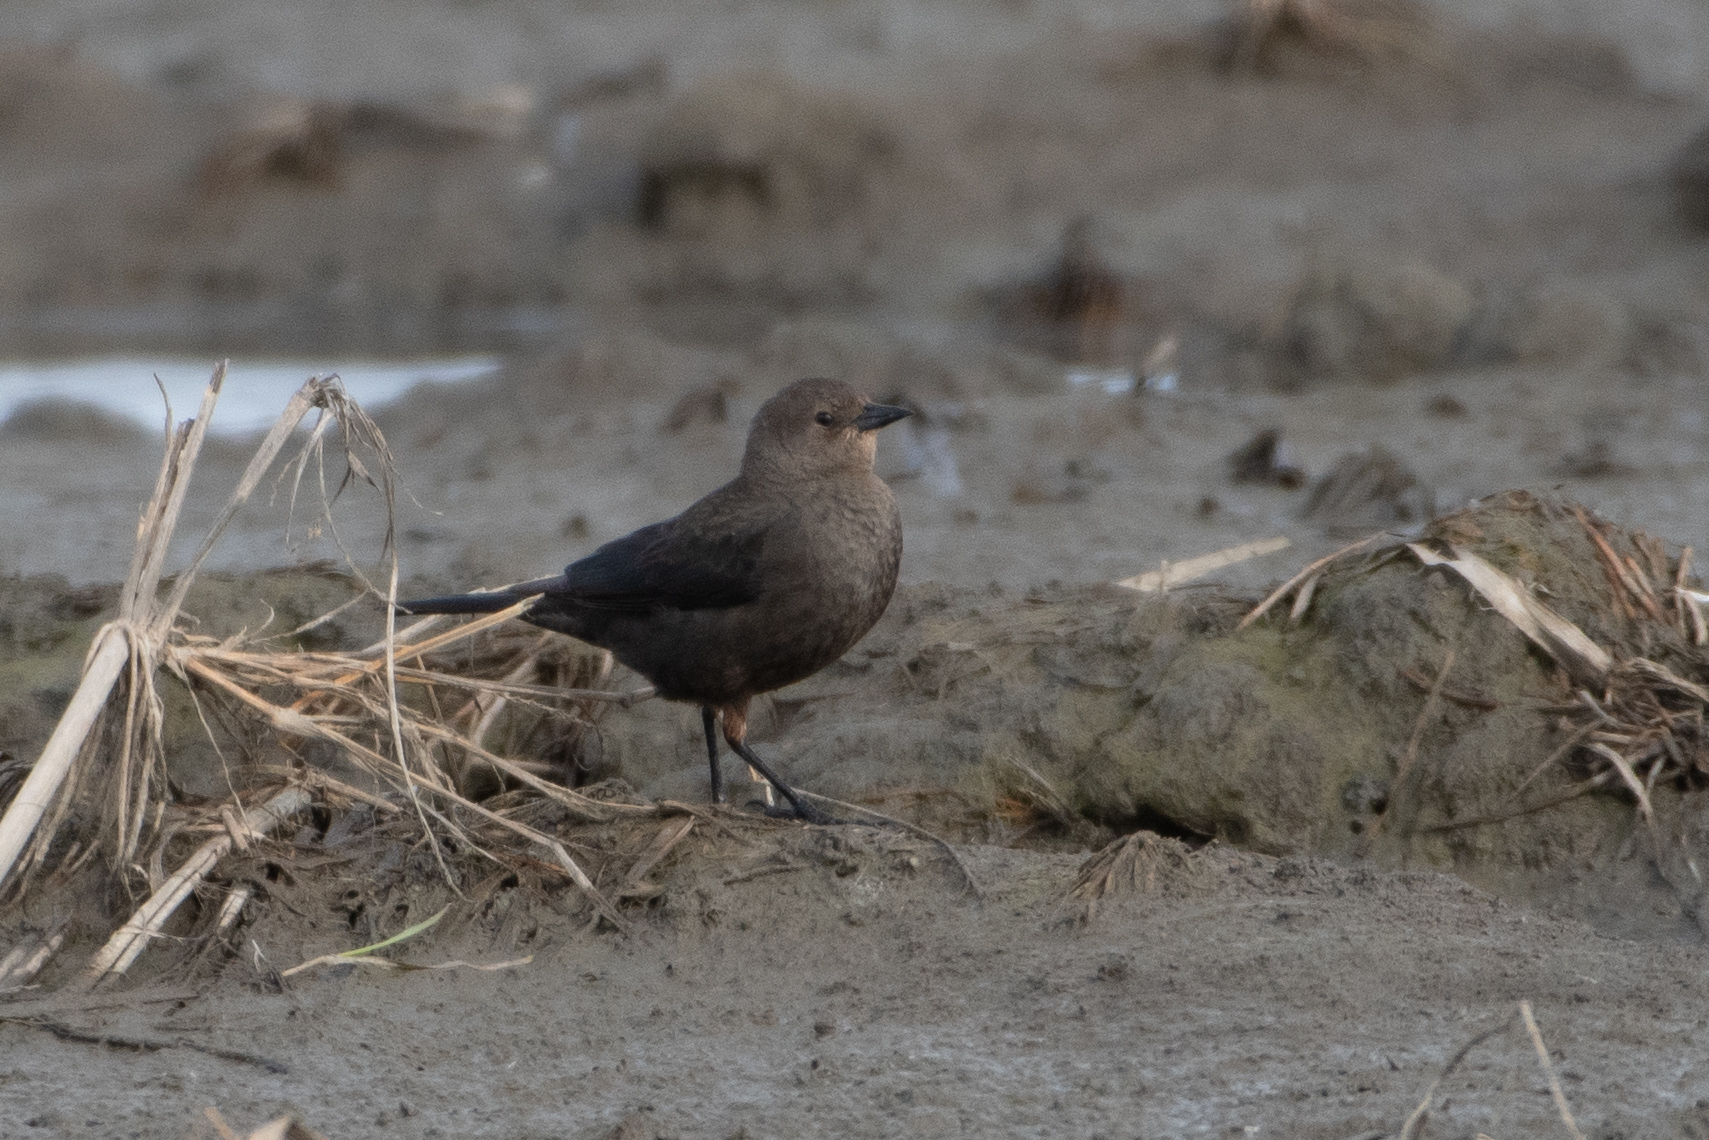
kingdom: Animalia
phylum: Chordata
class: Aves
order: Passeriformes
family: Icteridae
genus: Euphagus
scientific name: Euphagus cyanocephalus
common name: Brewer's blackbird
